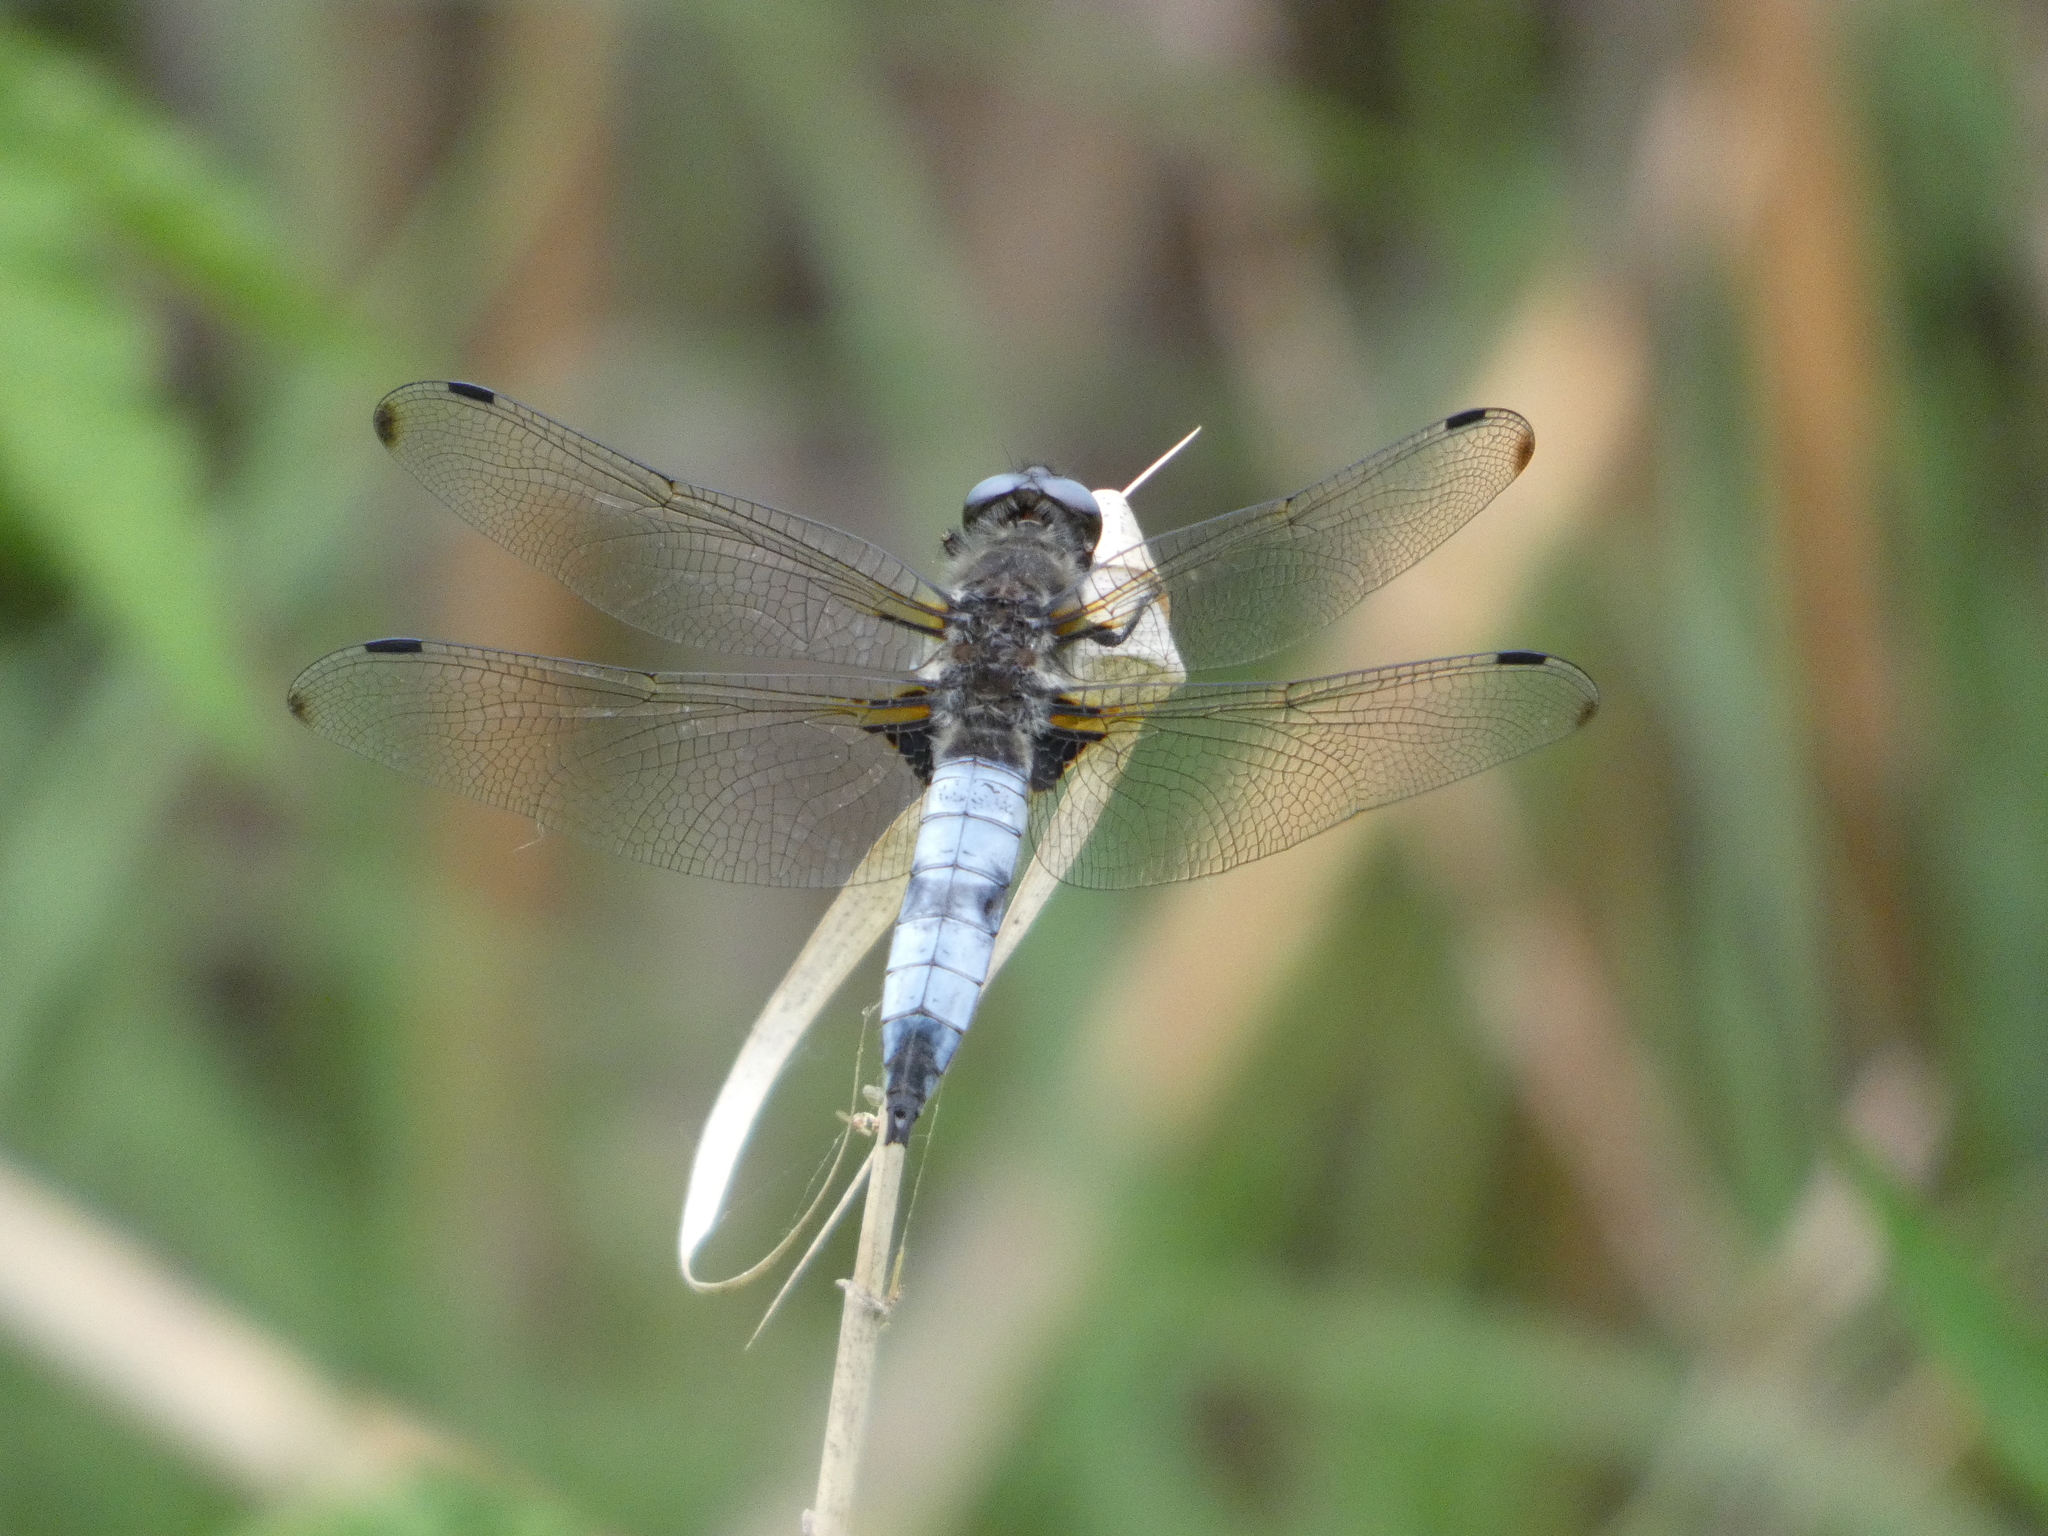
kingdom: Animalia
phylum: Arthropoda
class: Insecta
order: Odonata
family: Libellulidae
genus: Libellula
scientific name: Libellula fulva
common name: Blue chaser
